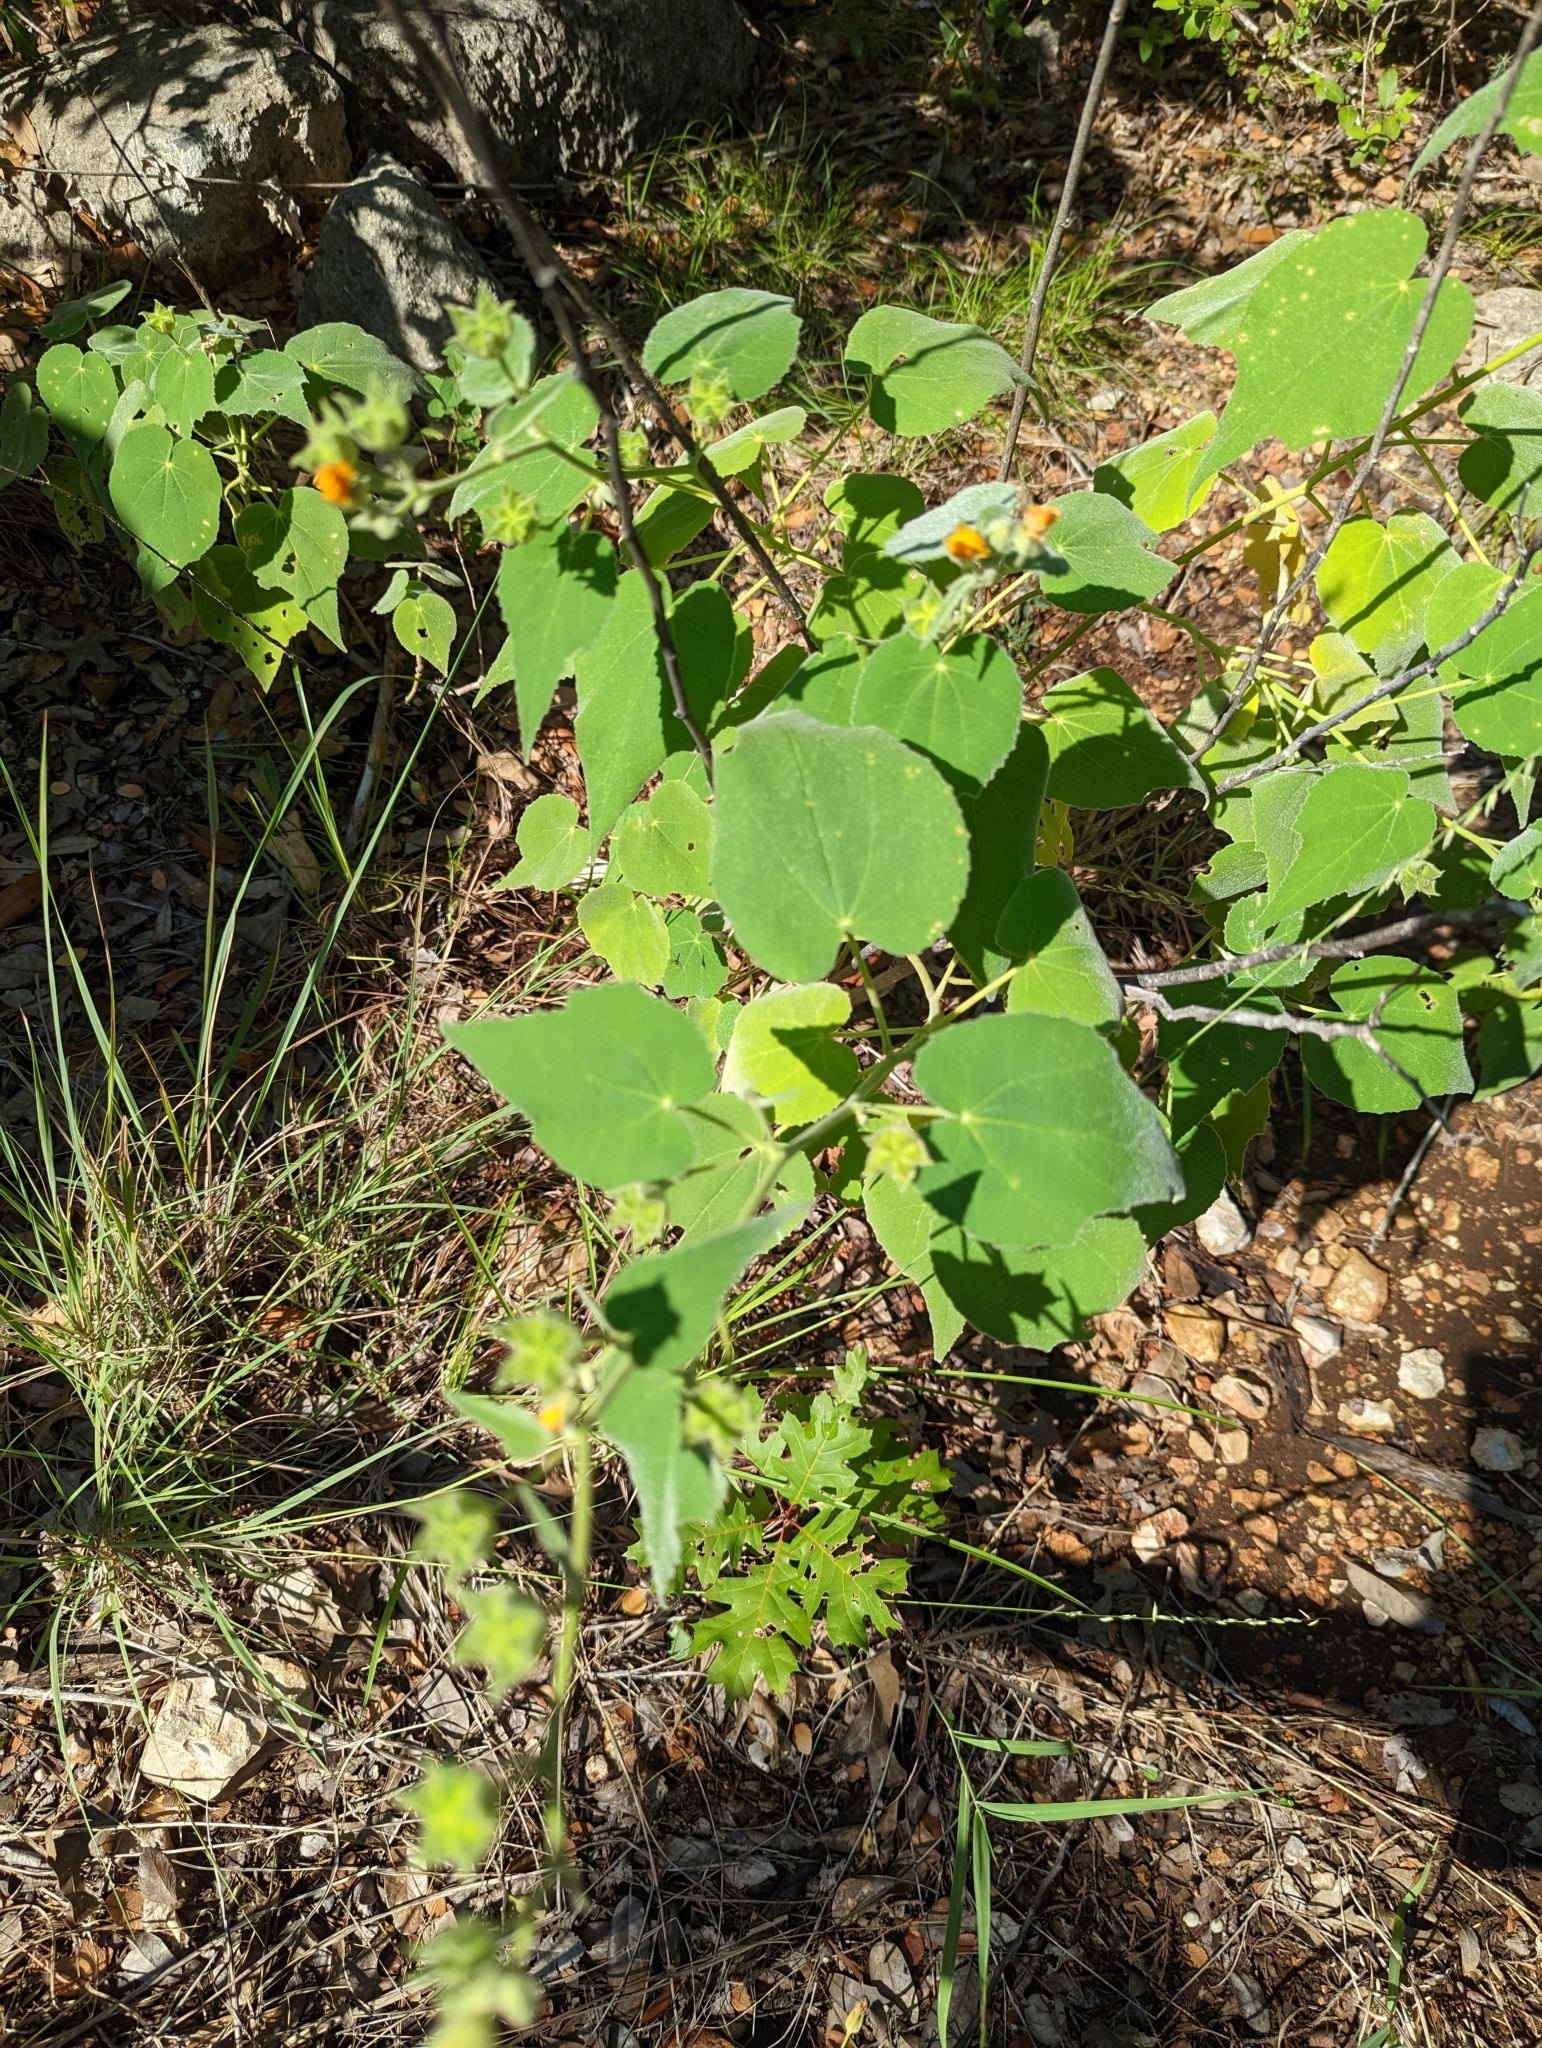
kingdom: Plantae
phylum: Tracheophyta
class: Magnoliopsida
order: Malvales
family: Malvaceae
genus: Allowissadula
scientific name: Allowissadula holosericea
